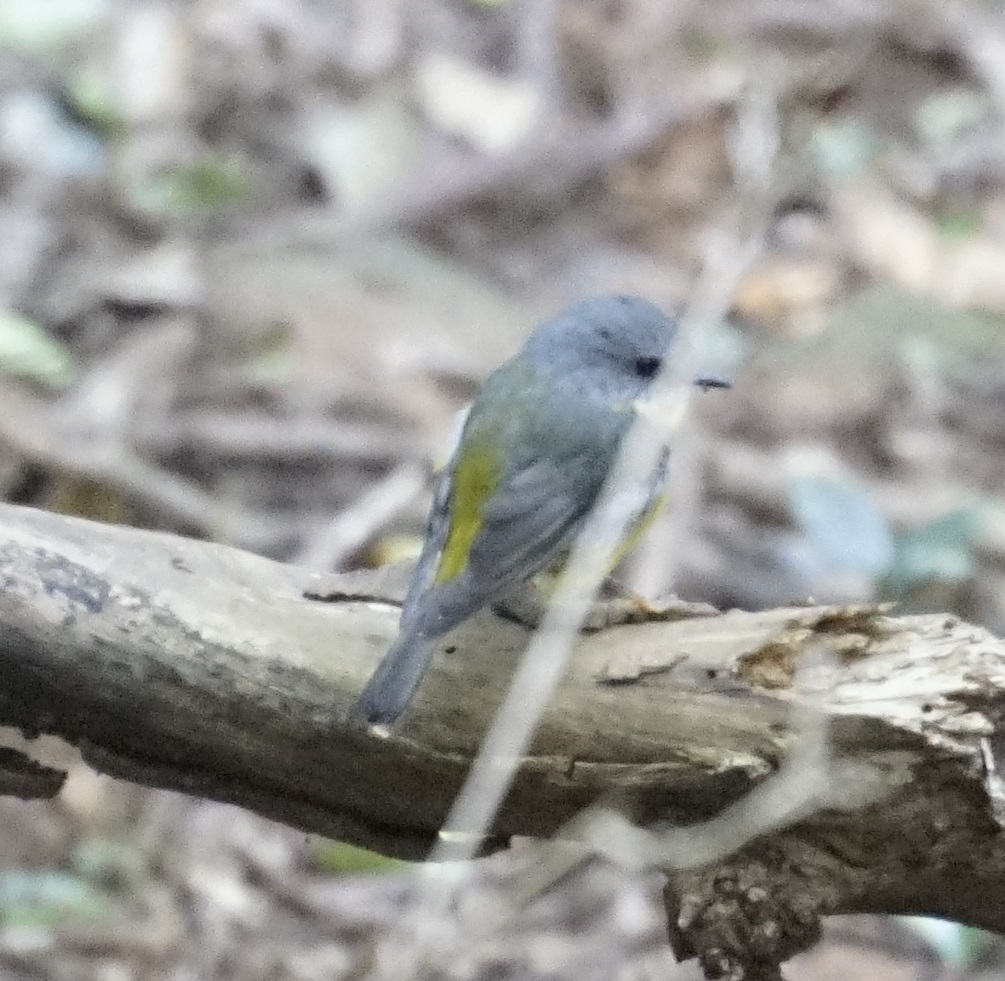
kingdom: Animalia
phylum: Chordata
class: Aves
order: Passeriformes
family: Petroicidae
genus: Eopsaltria
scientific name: Eopsaltria australis
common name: Eastern yellow robin
